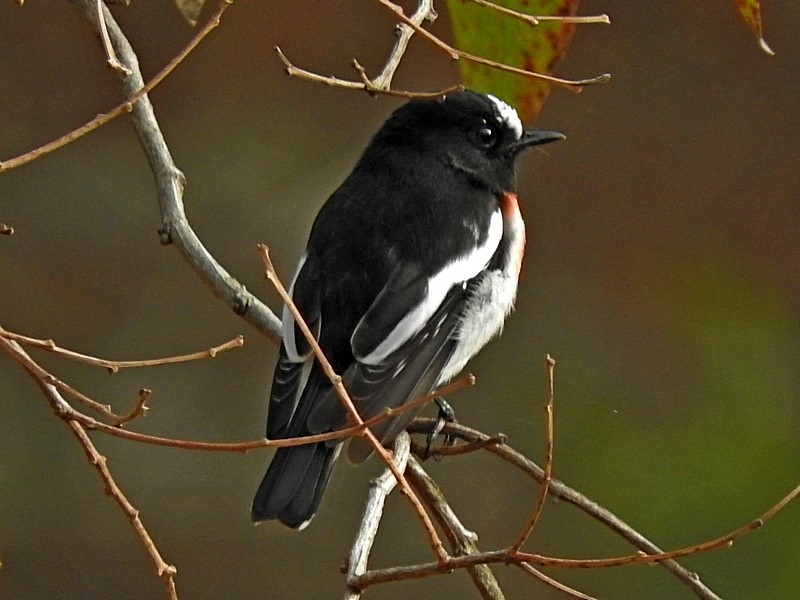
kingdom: Animalia
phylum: Chordata
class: Aves
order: Passeriformes
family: Petroicidae
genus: Petroica
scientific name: Petroica boodang
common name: Scarlet robin
